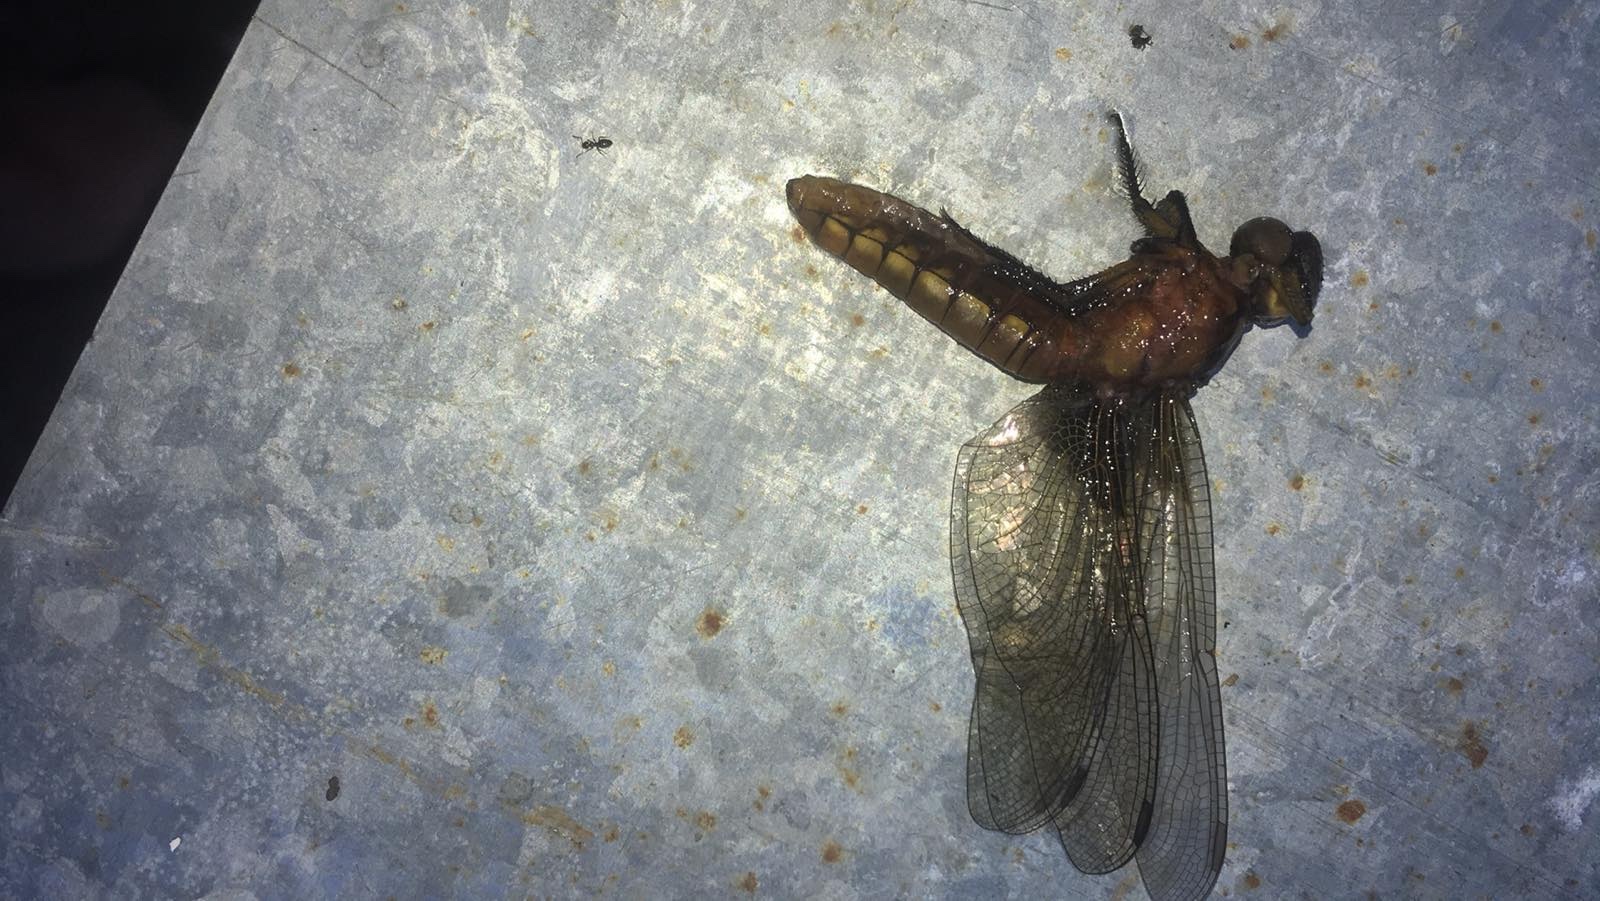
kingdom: Animalia
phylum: Arthropoda
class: Insecta
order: Odonata
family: Libellulidae
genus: Libellula
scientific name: Libellula depressa
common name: Broad-bodied chaser
